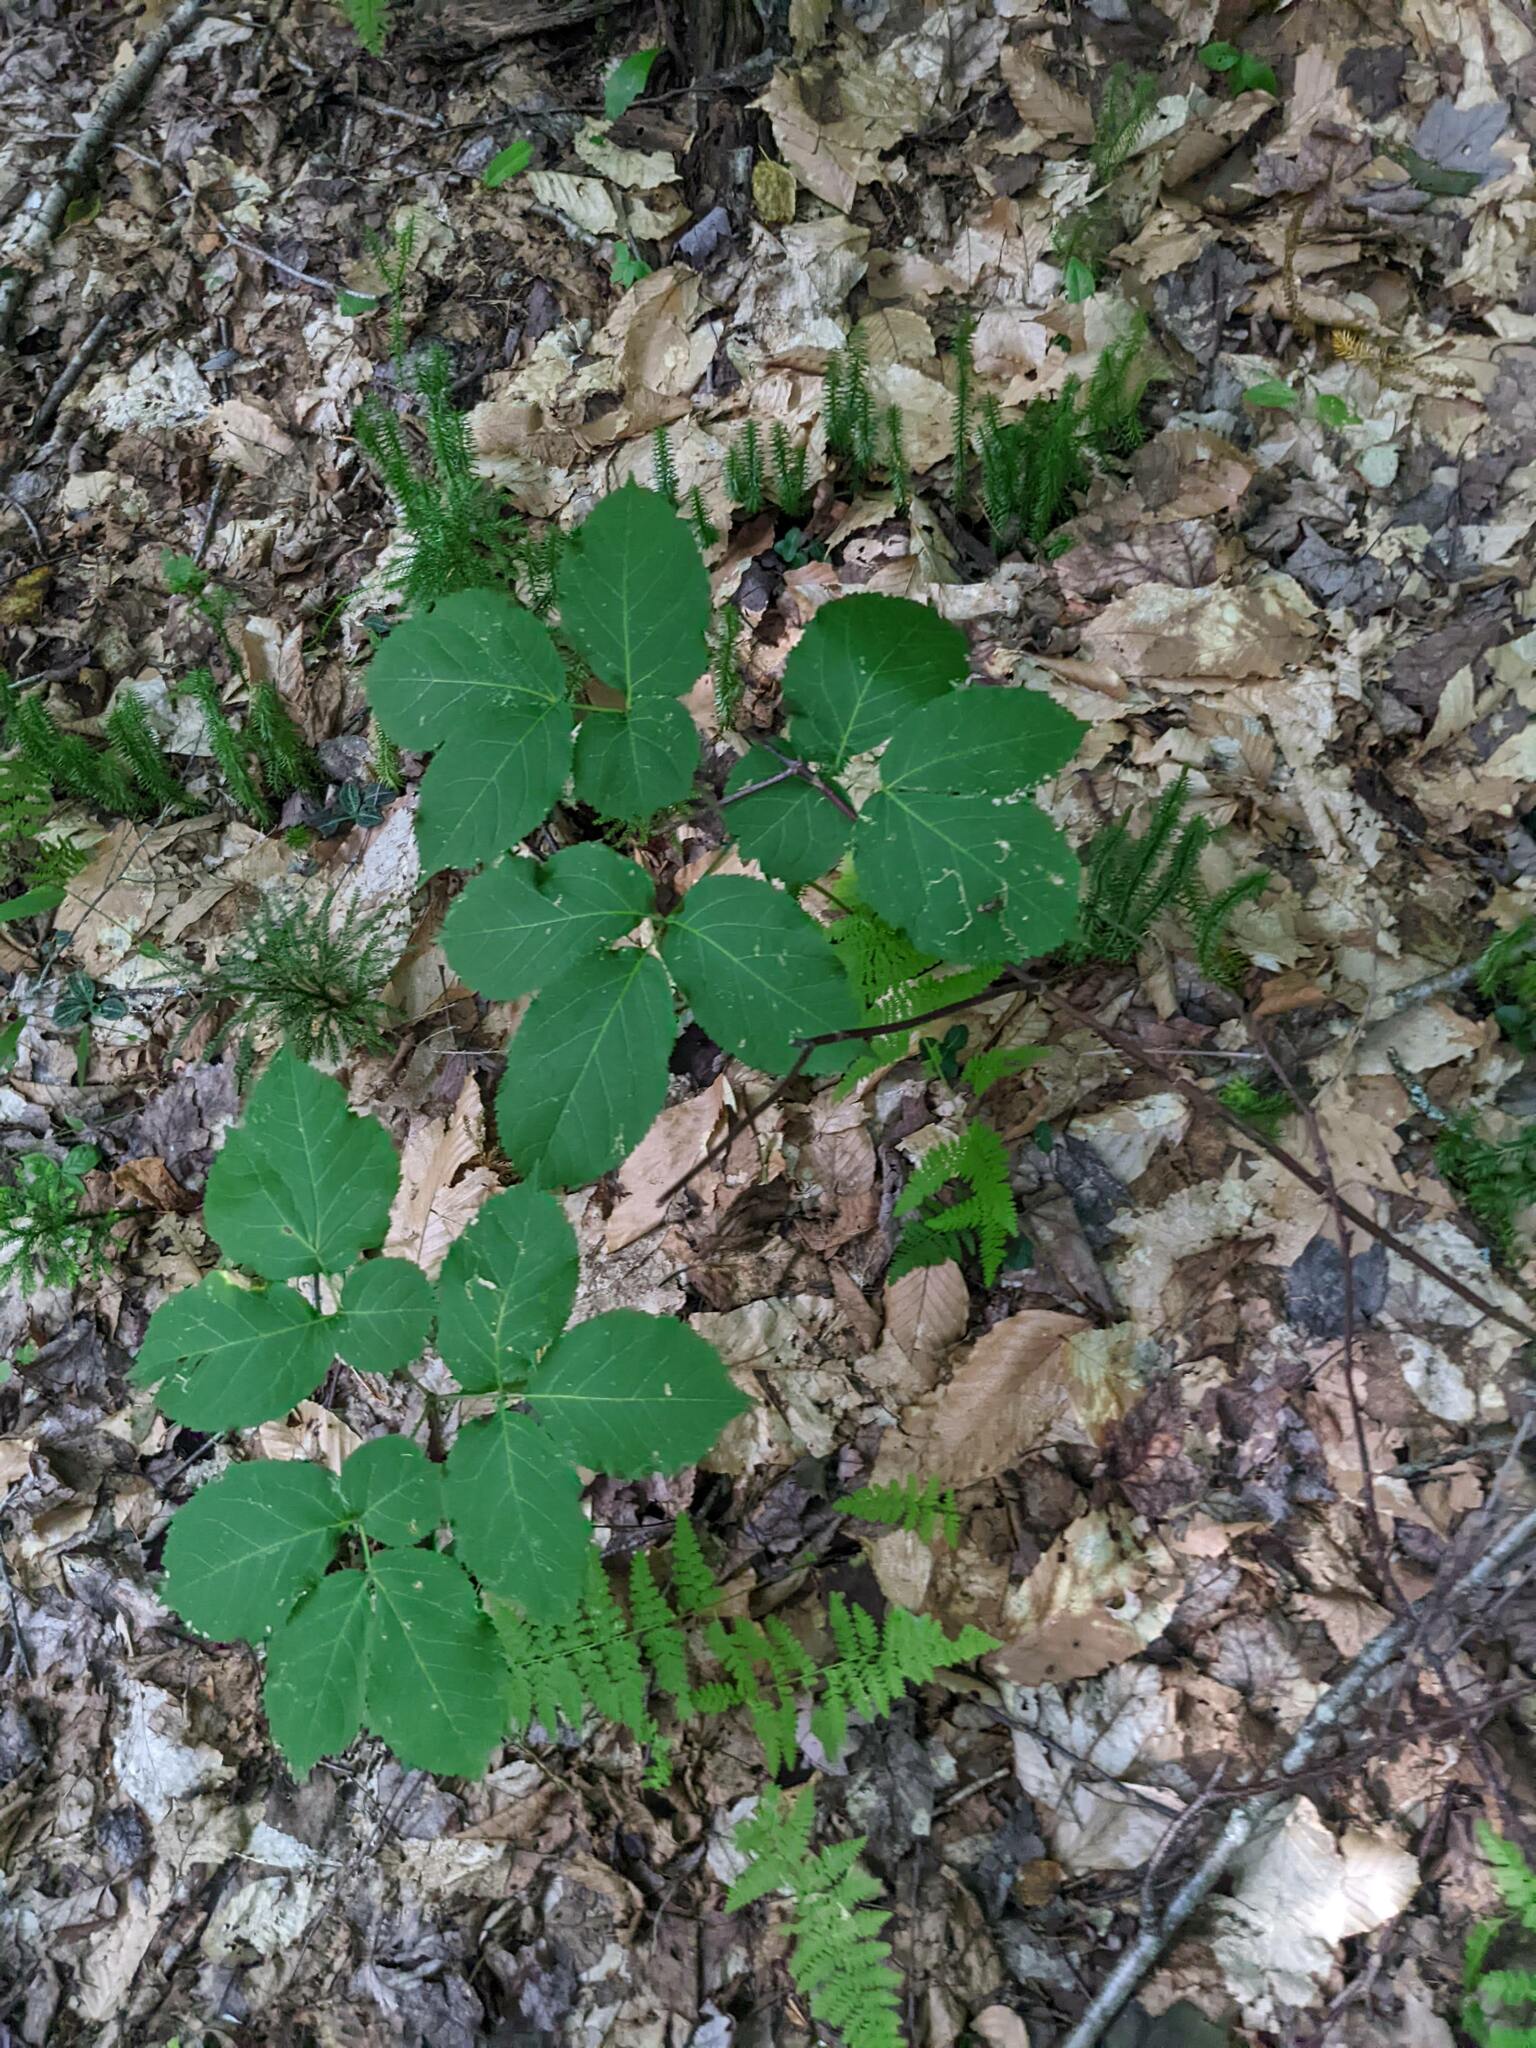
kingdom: Plantae
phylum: Tracheophyta
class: Magnoliopsida
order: Apiales
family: Araliaceae
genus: Aralia
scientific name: Aralia nudicaulis
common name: Wild sarsaparilla
